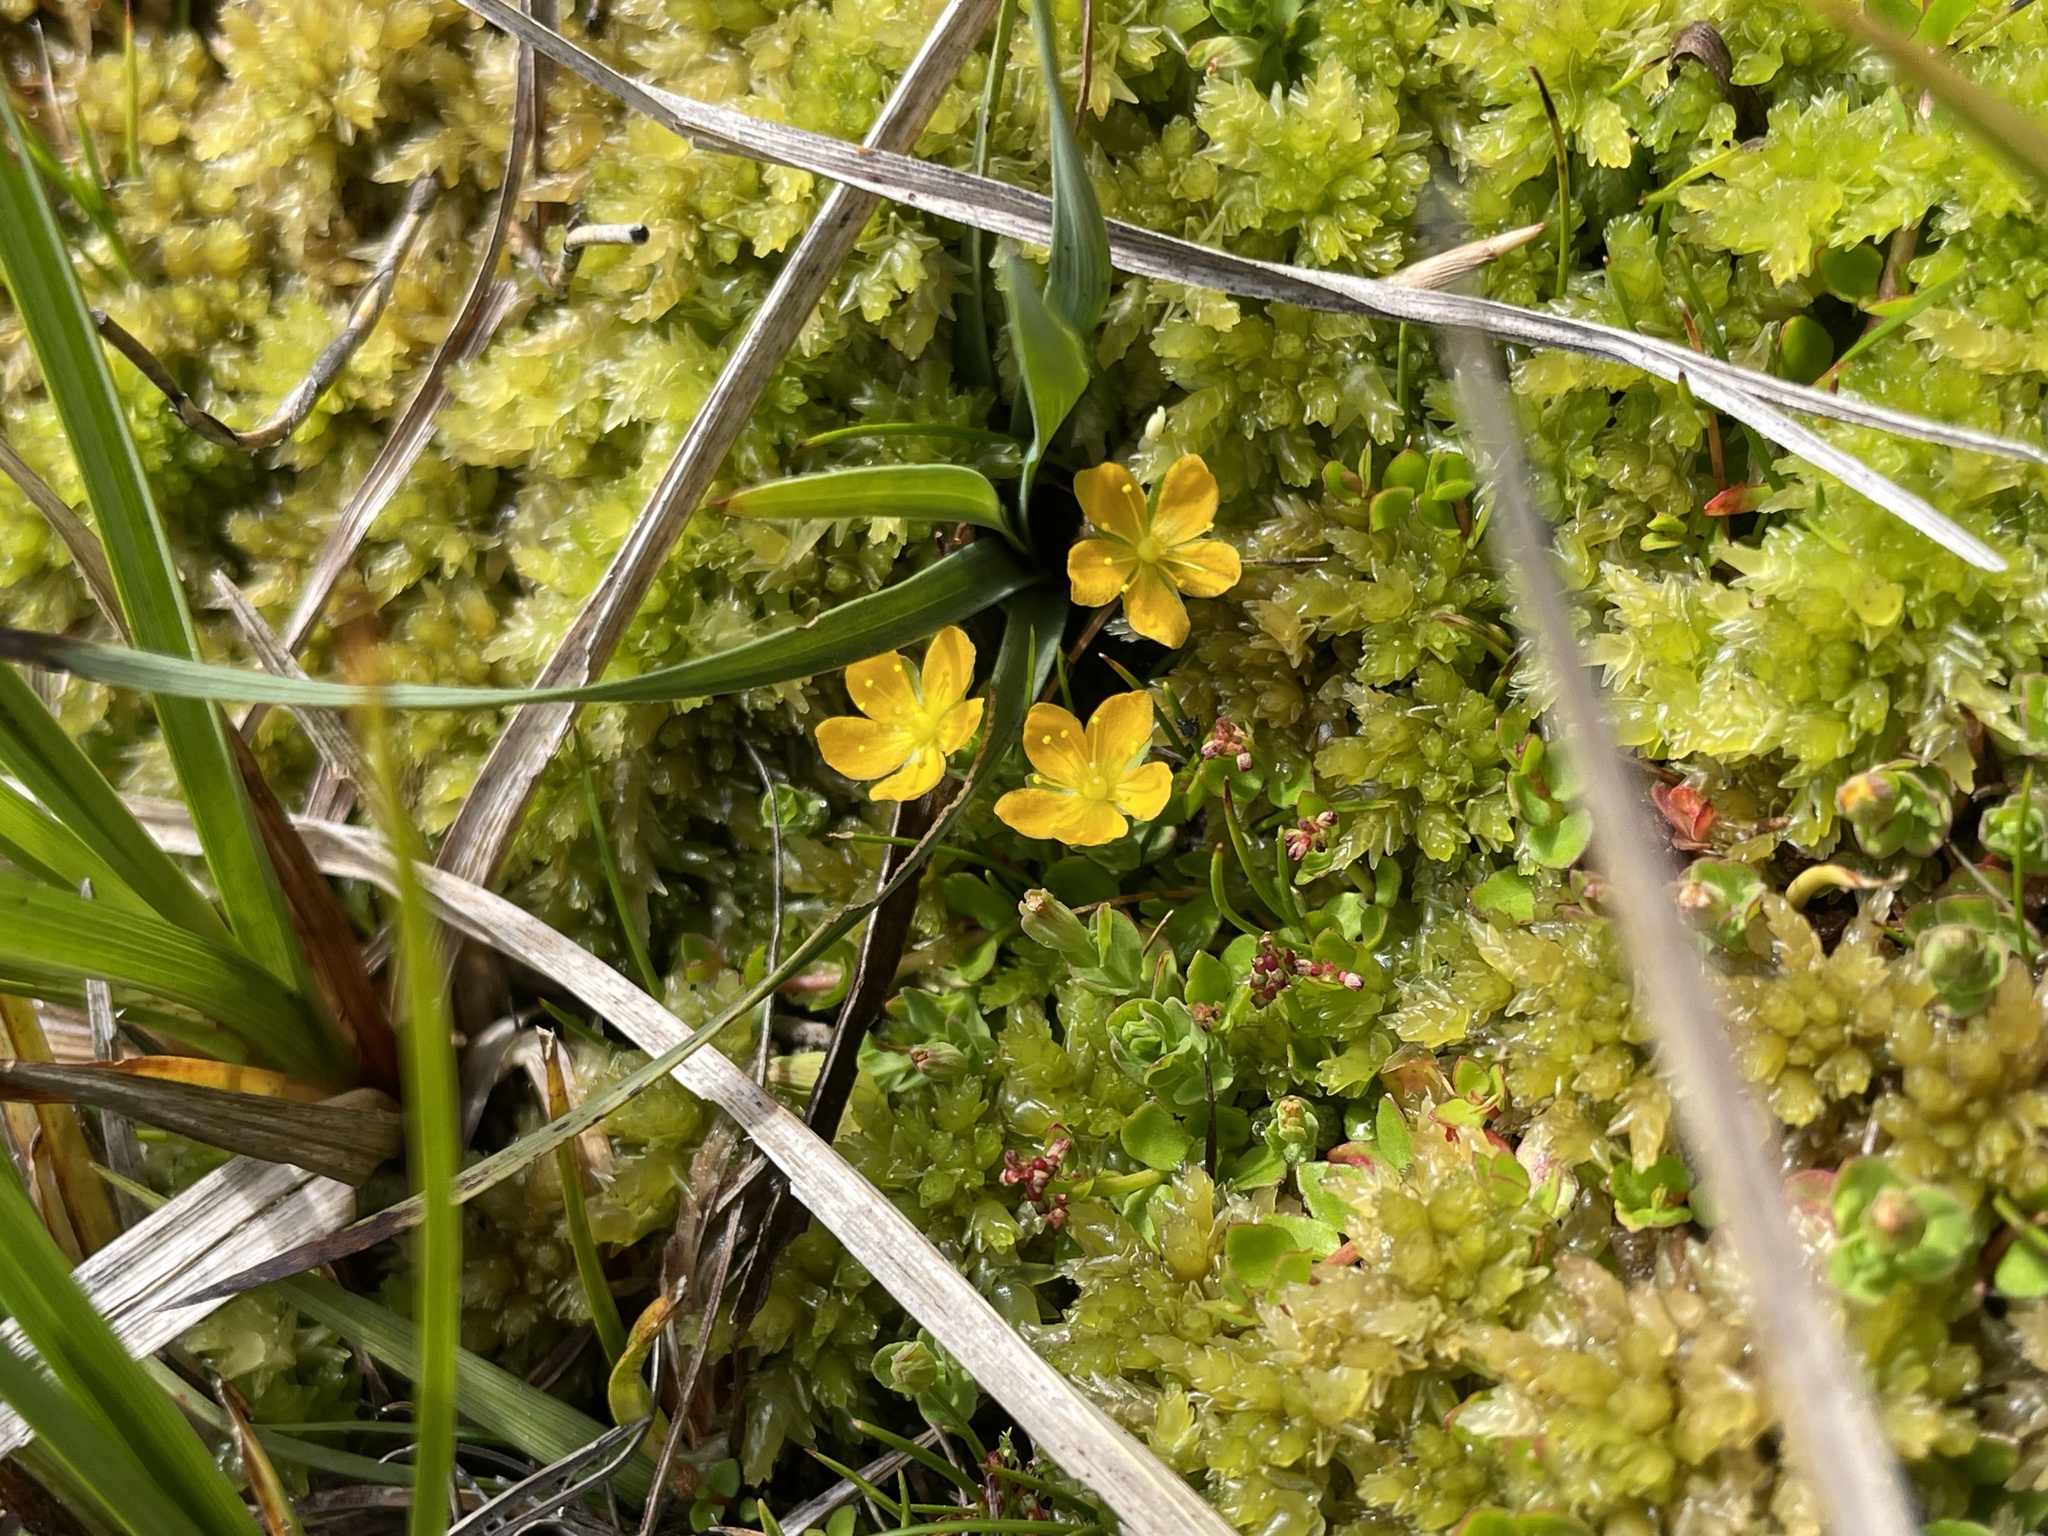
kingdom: Plantae
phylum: Tracheophyta
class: Magnoliopsida
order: Malpighiales
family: Hypericaceae
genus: Hypericum
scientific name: Hypericum japonicum
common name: Matted st. john's-wort
